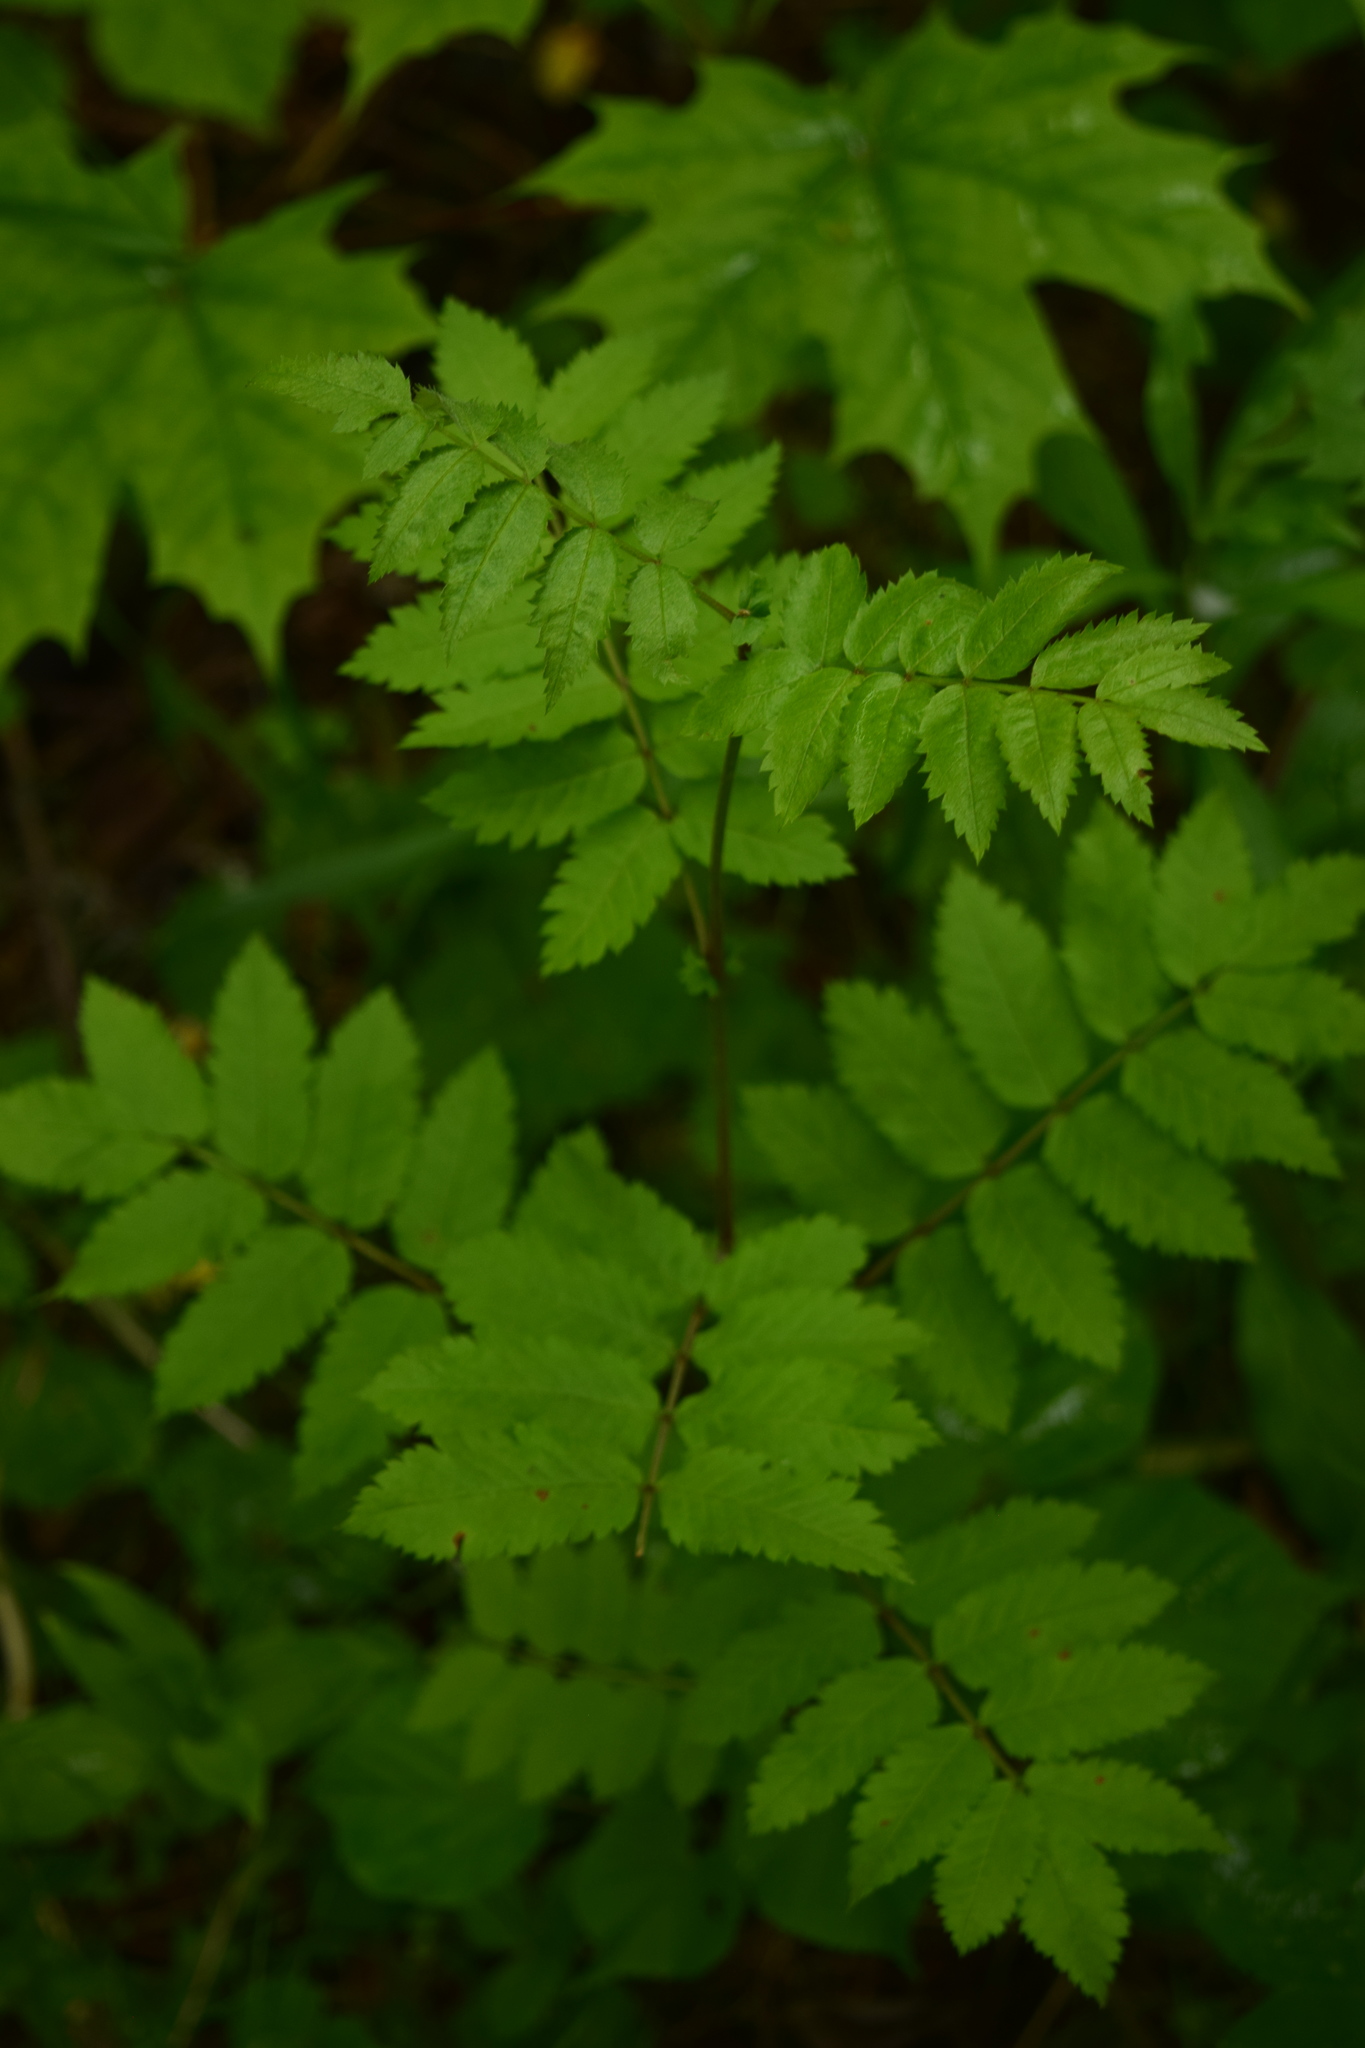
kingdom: Plantae
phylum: Tracheophyta
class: Magnoliopsida
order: Rosales
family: Rosaceae
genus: Sorbus
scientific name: Sorbus aucuparia
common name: Rowan
